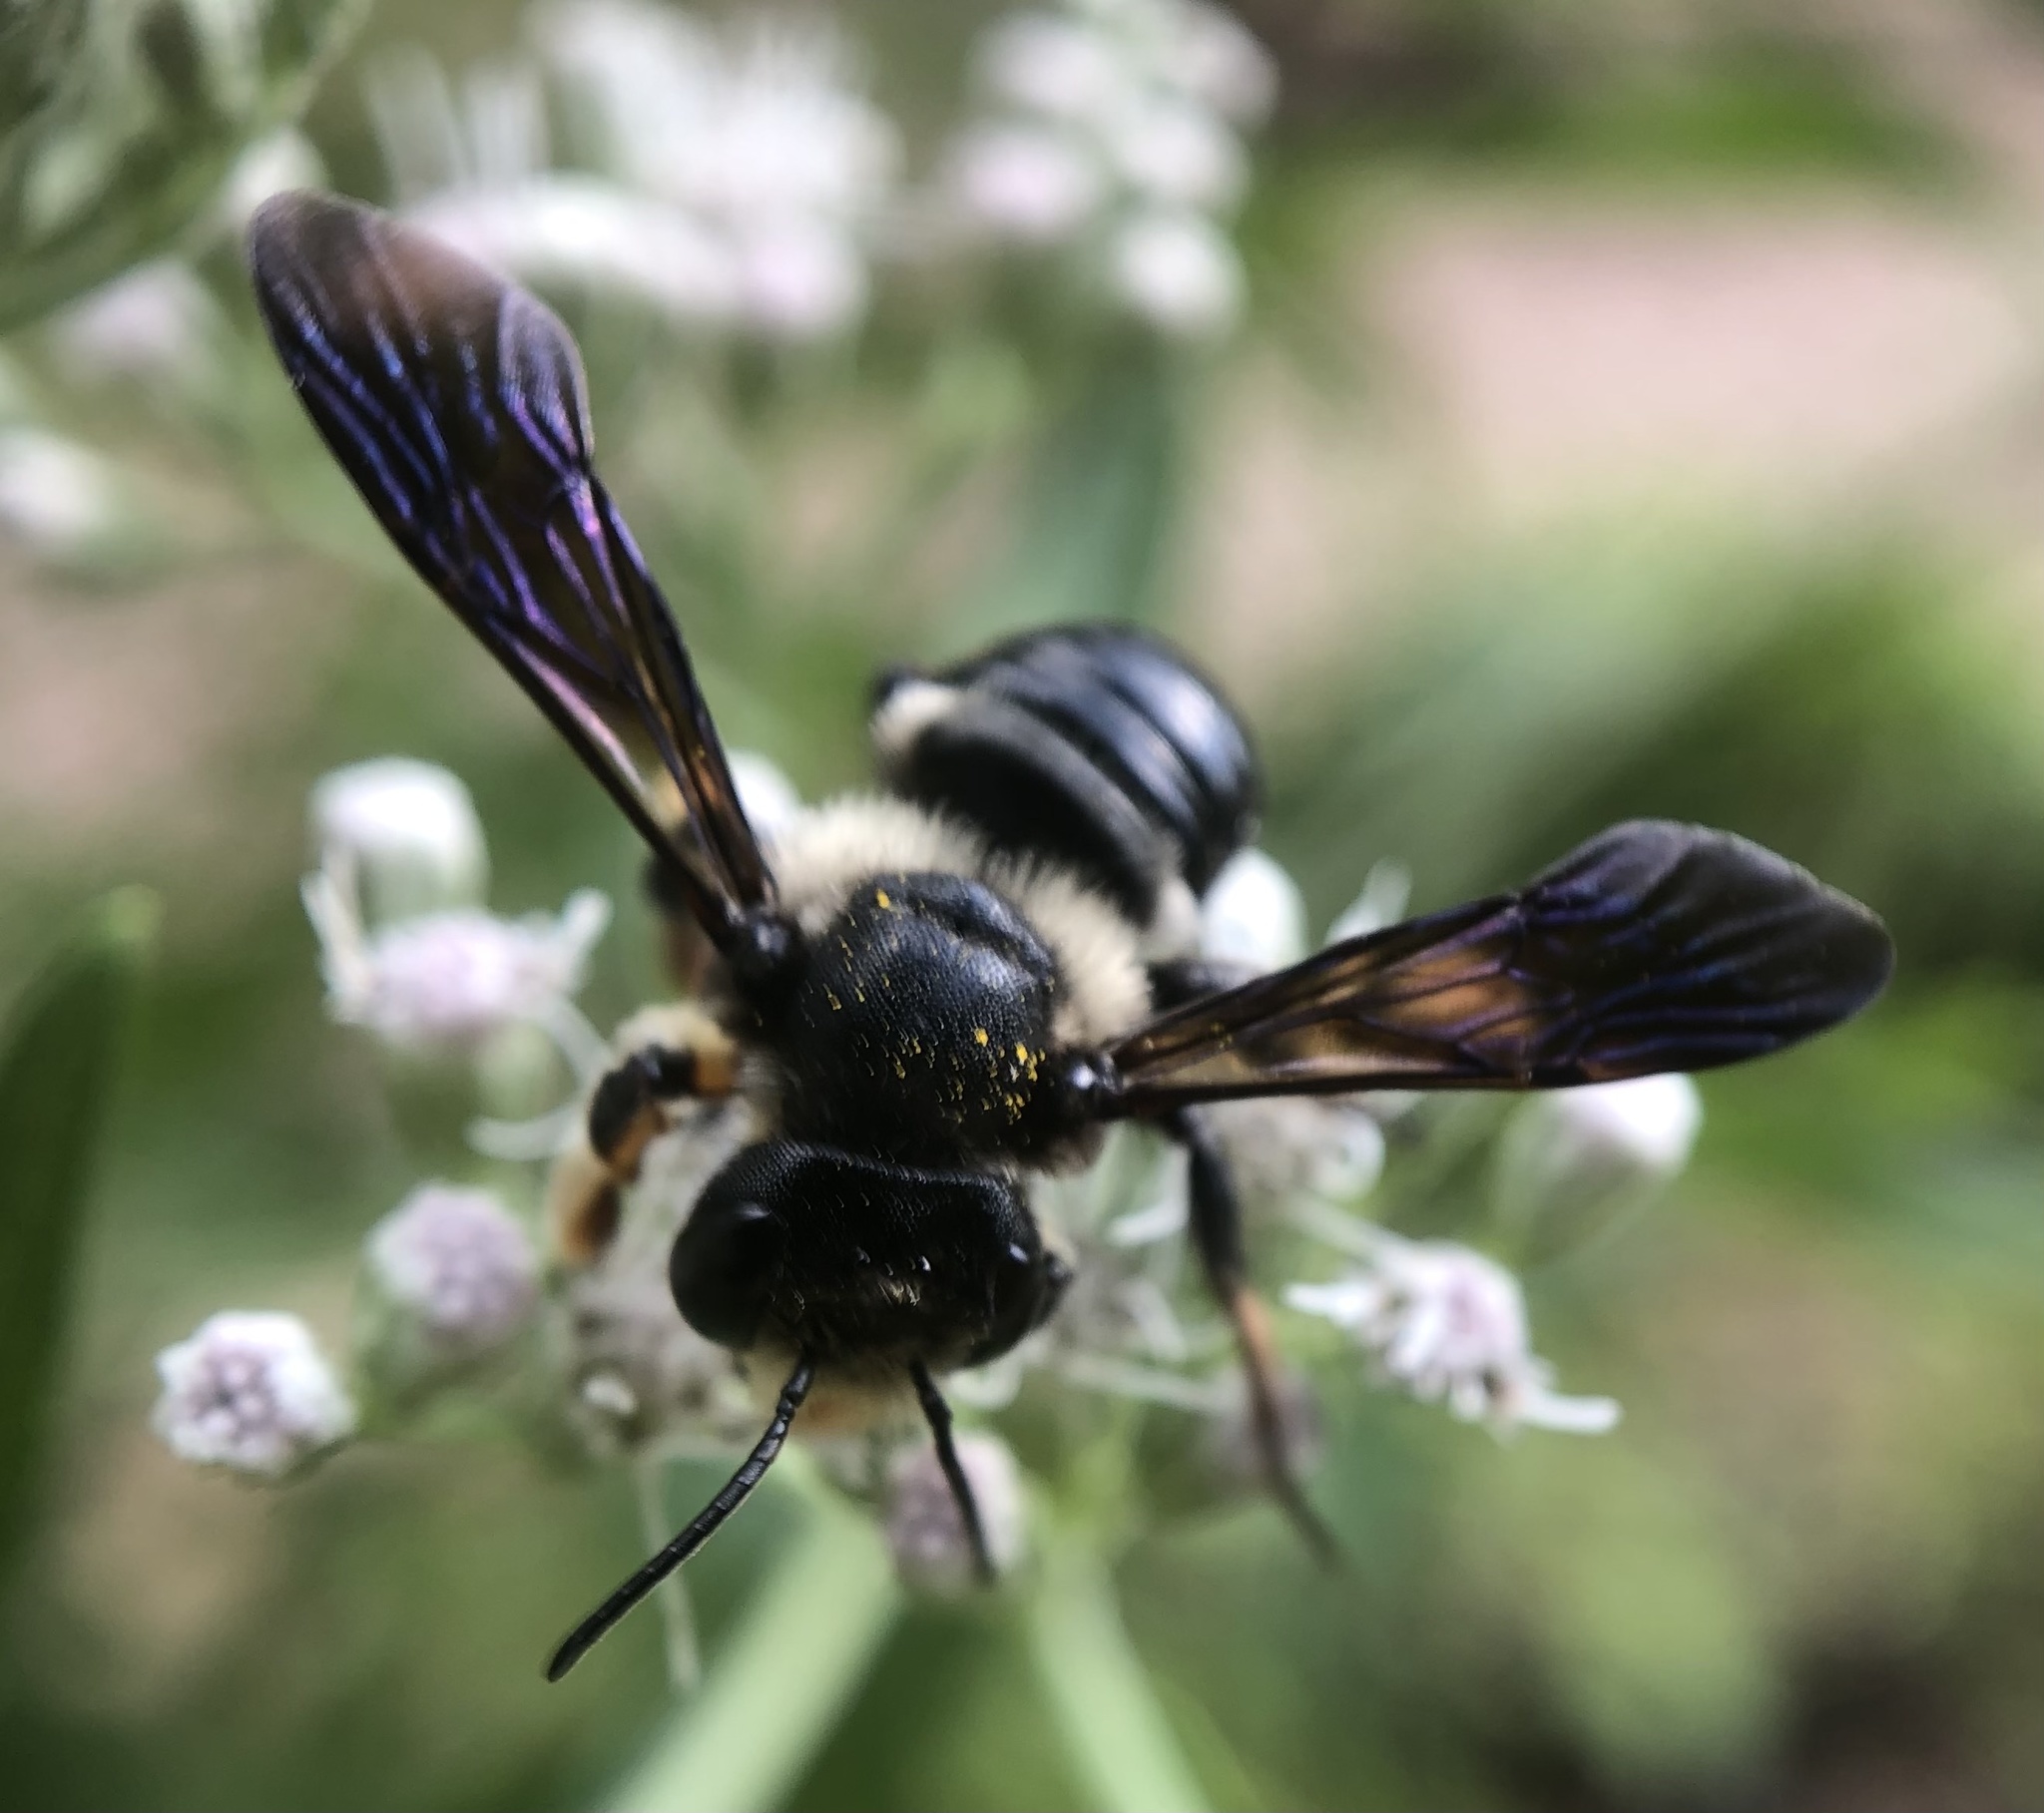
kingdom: Animalia
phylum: Arthropoda
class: Insecta
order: Hymenoptera
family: Megachilidae
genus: Megachile
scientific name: Megachile xylocopoides
